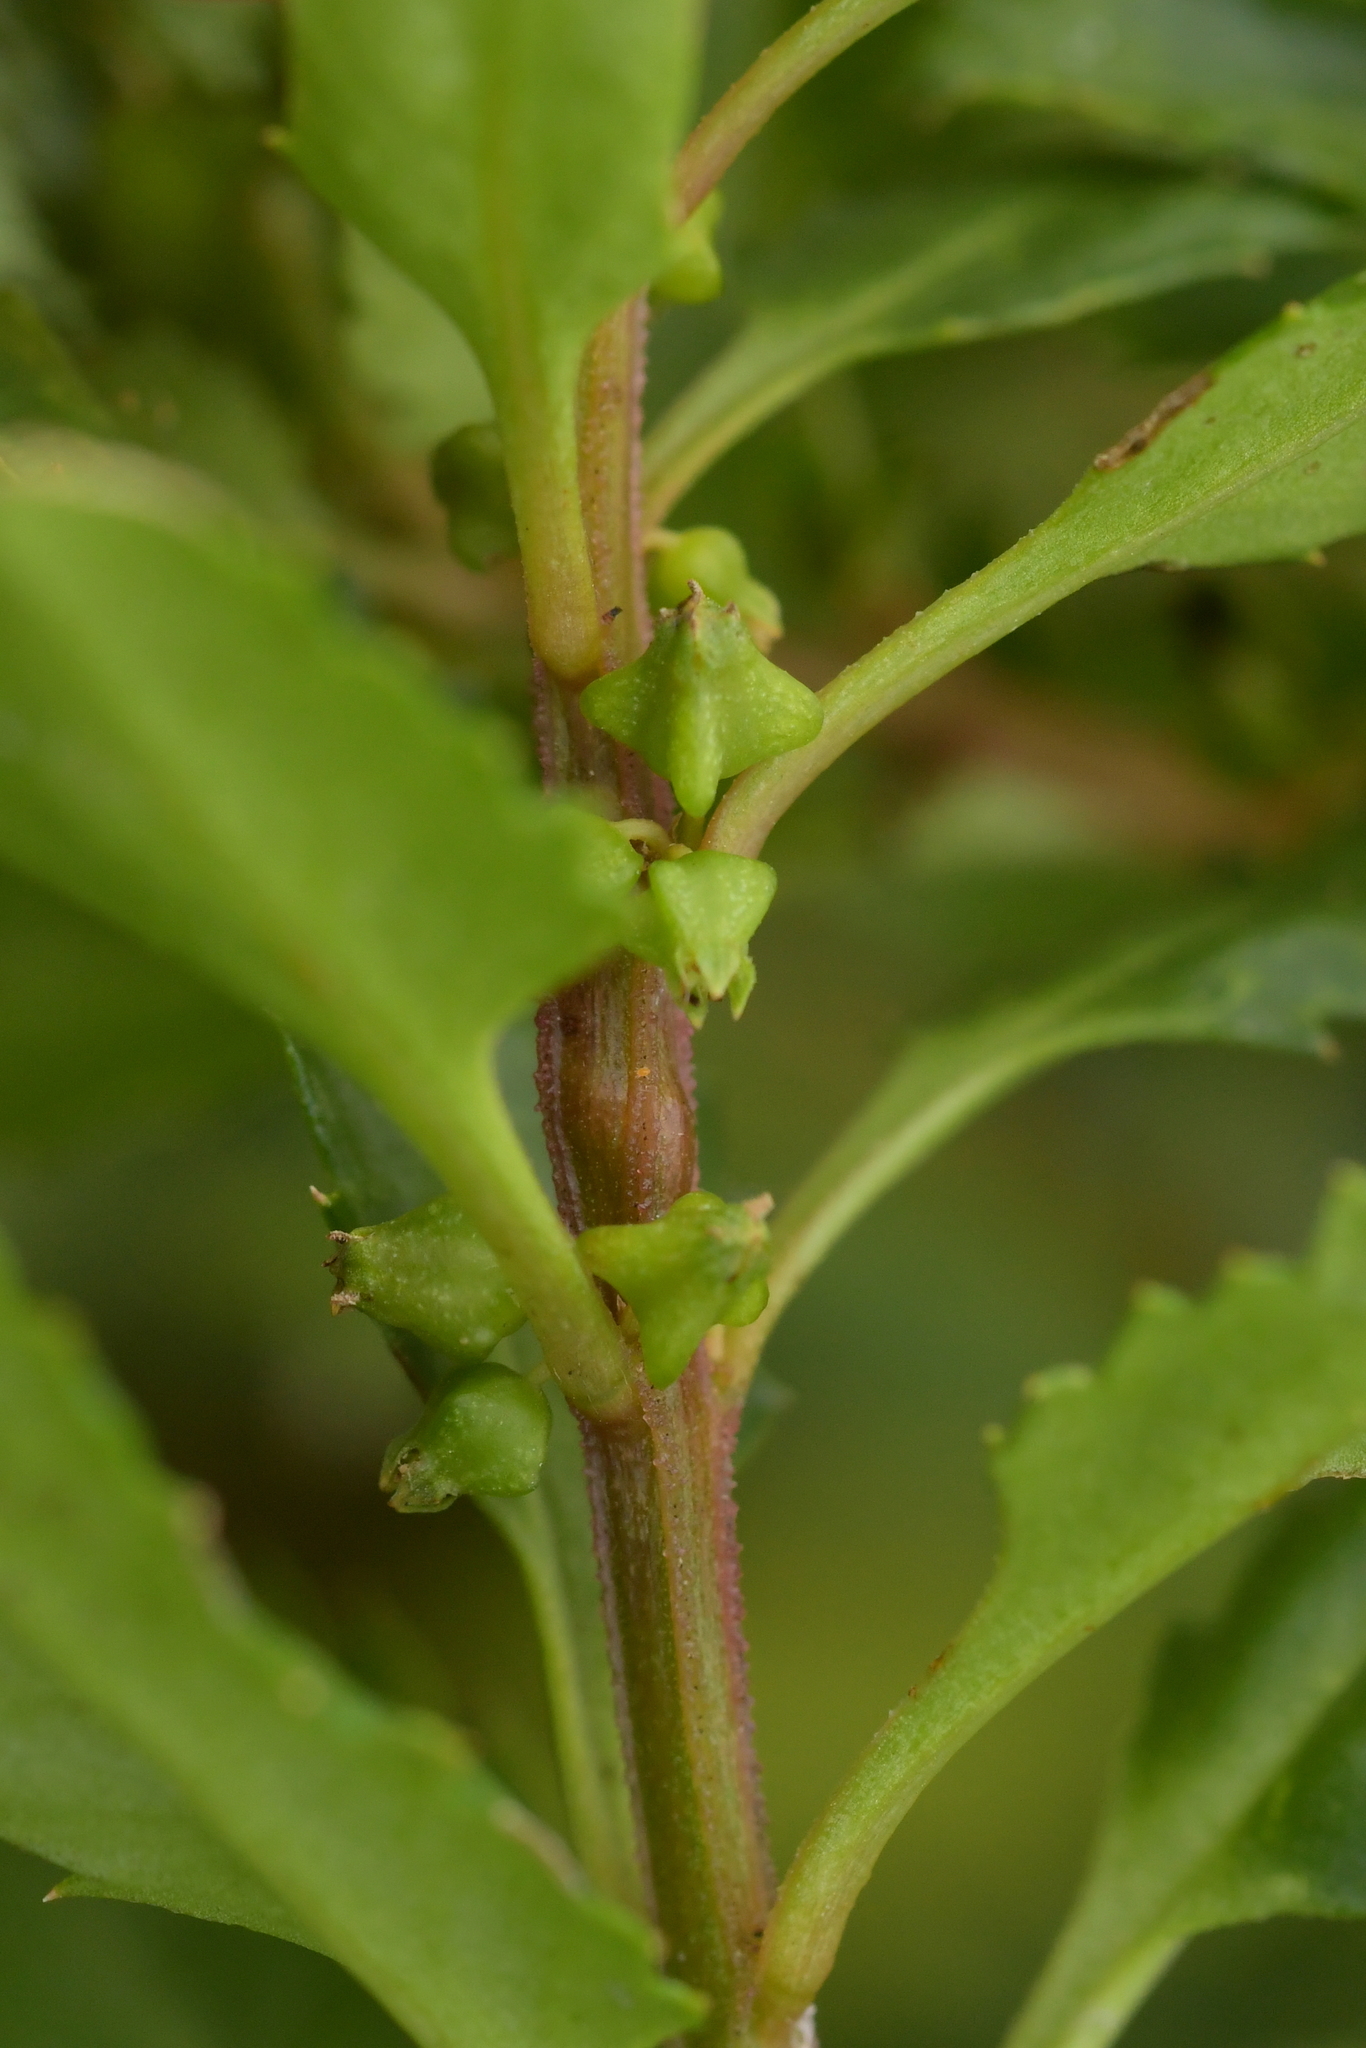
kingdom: Plantae
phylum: Tracheophyta
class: Magnoliopsida
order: Saxifragales
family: Haloragaceae
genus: Haloragis
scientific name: Haloragis erecta
